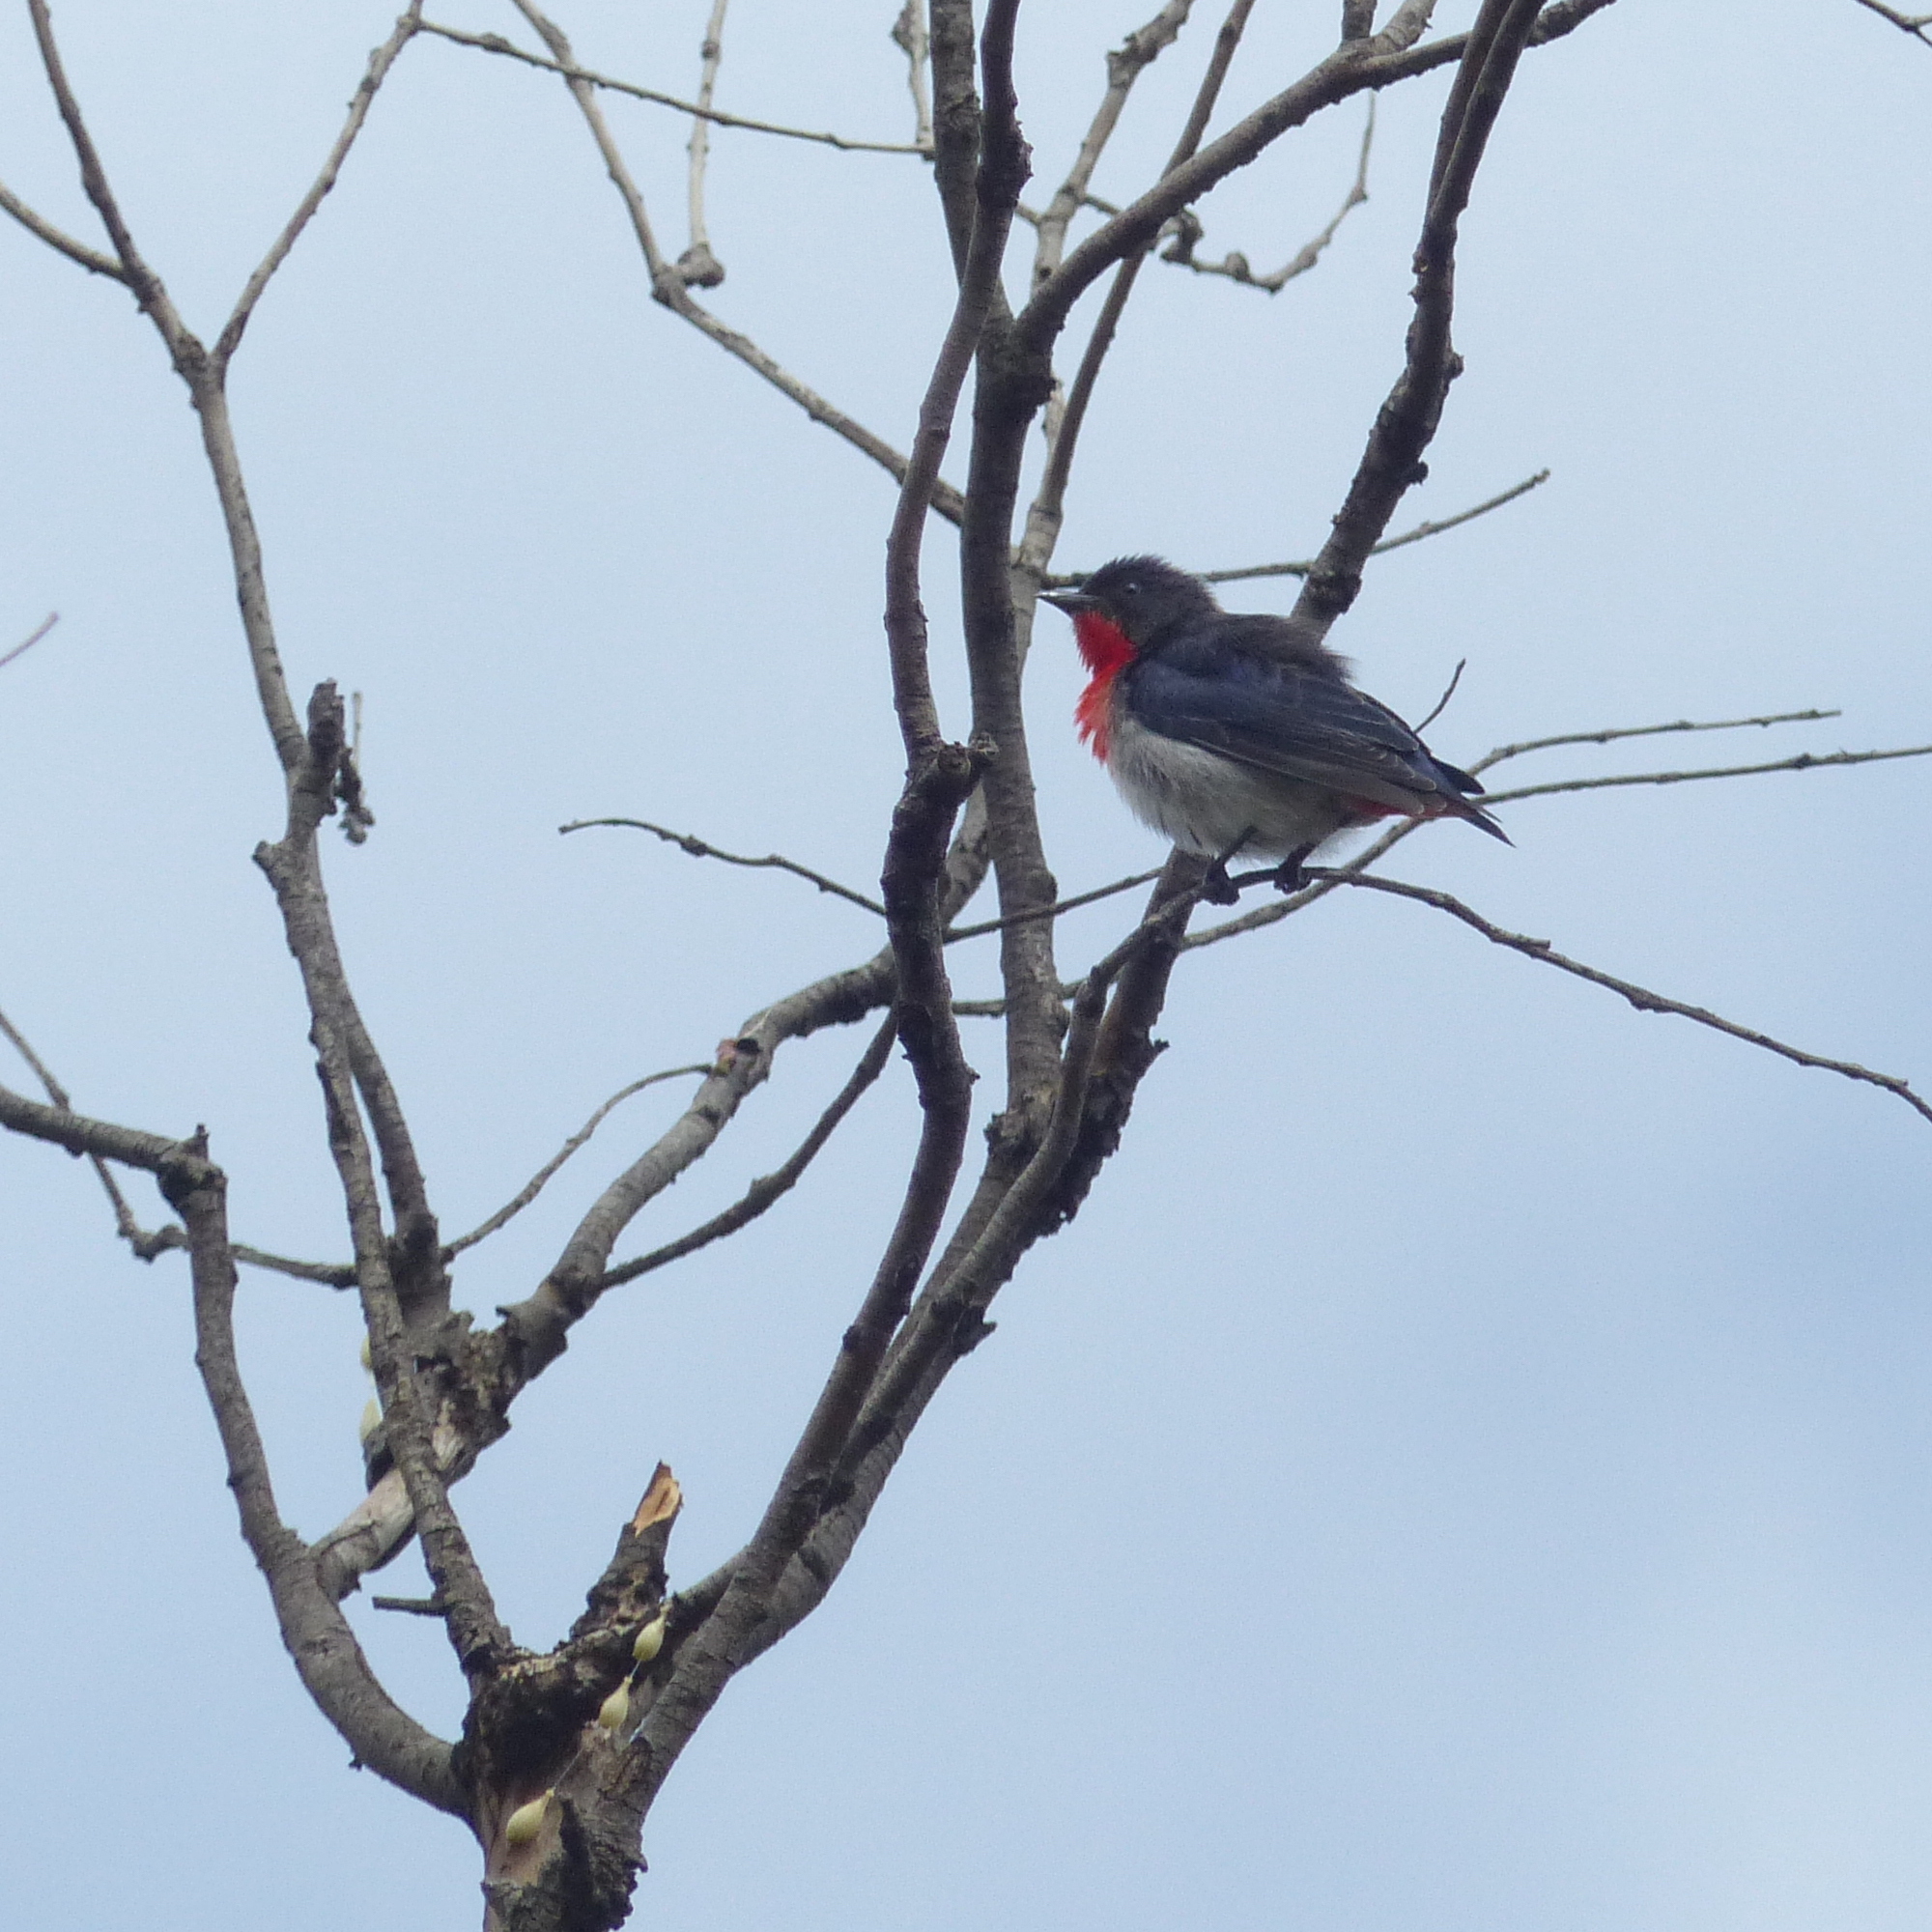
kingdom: Animalia
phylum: Chordata
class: Aves
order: Passeriformes
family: Dicaeidae
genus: Dicaeum
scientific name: Dicaeum hirundinaceum
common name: Mistletoebird
